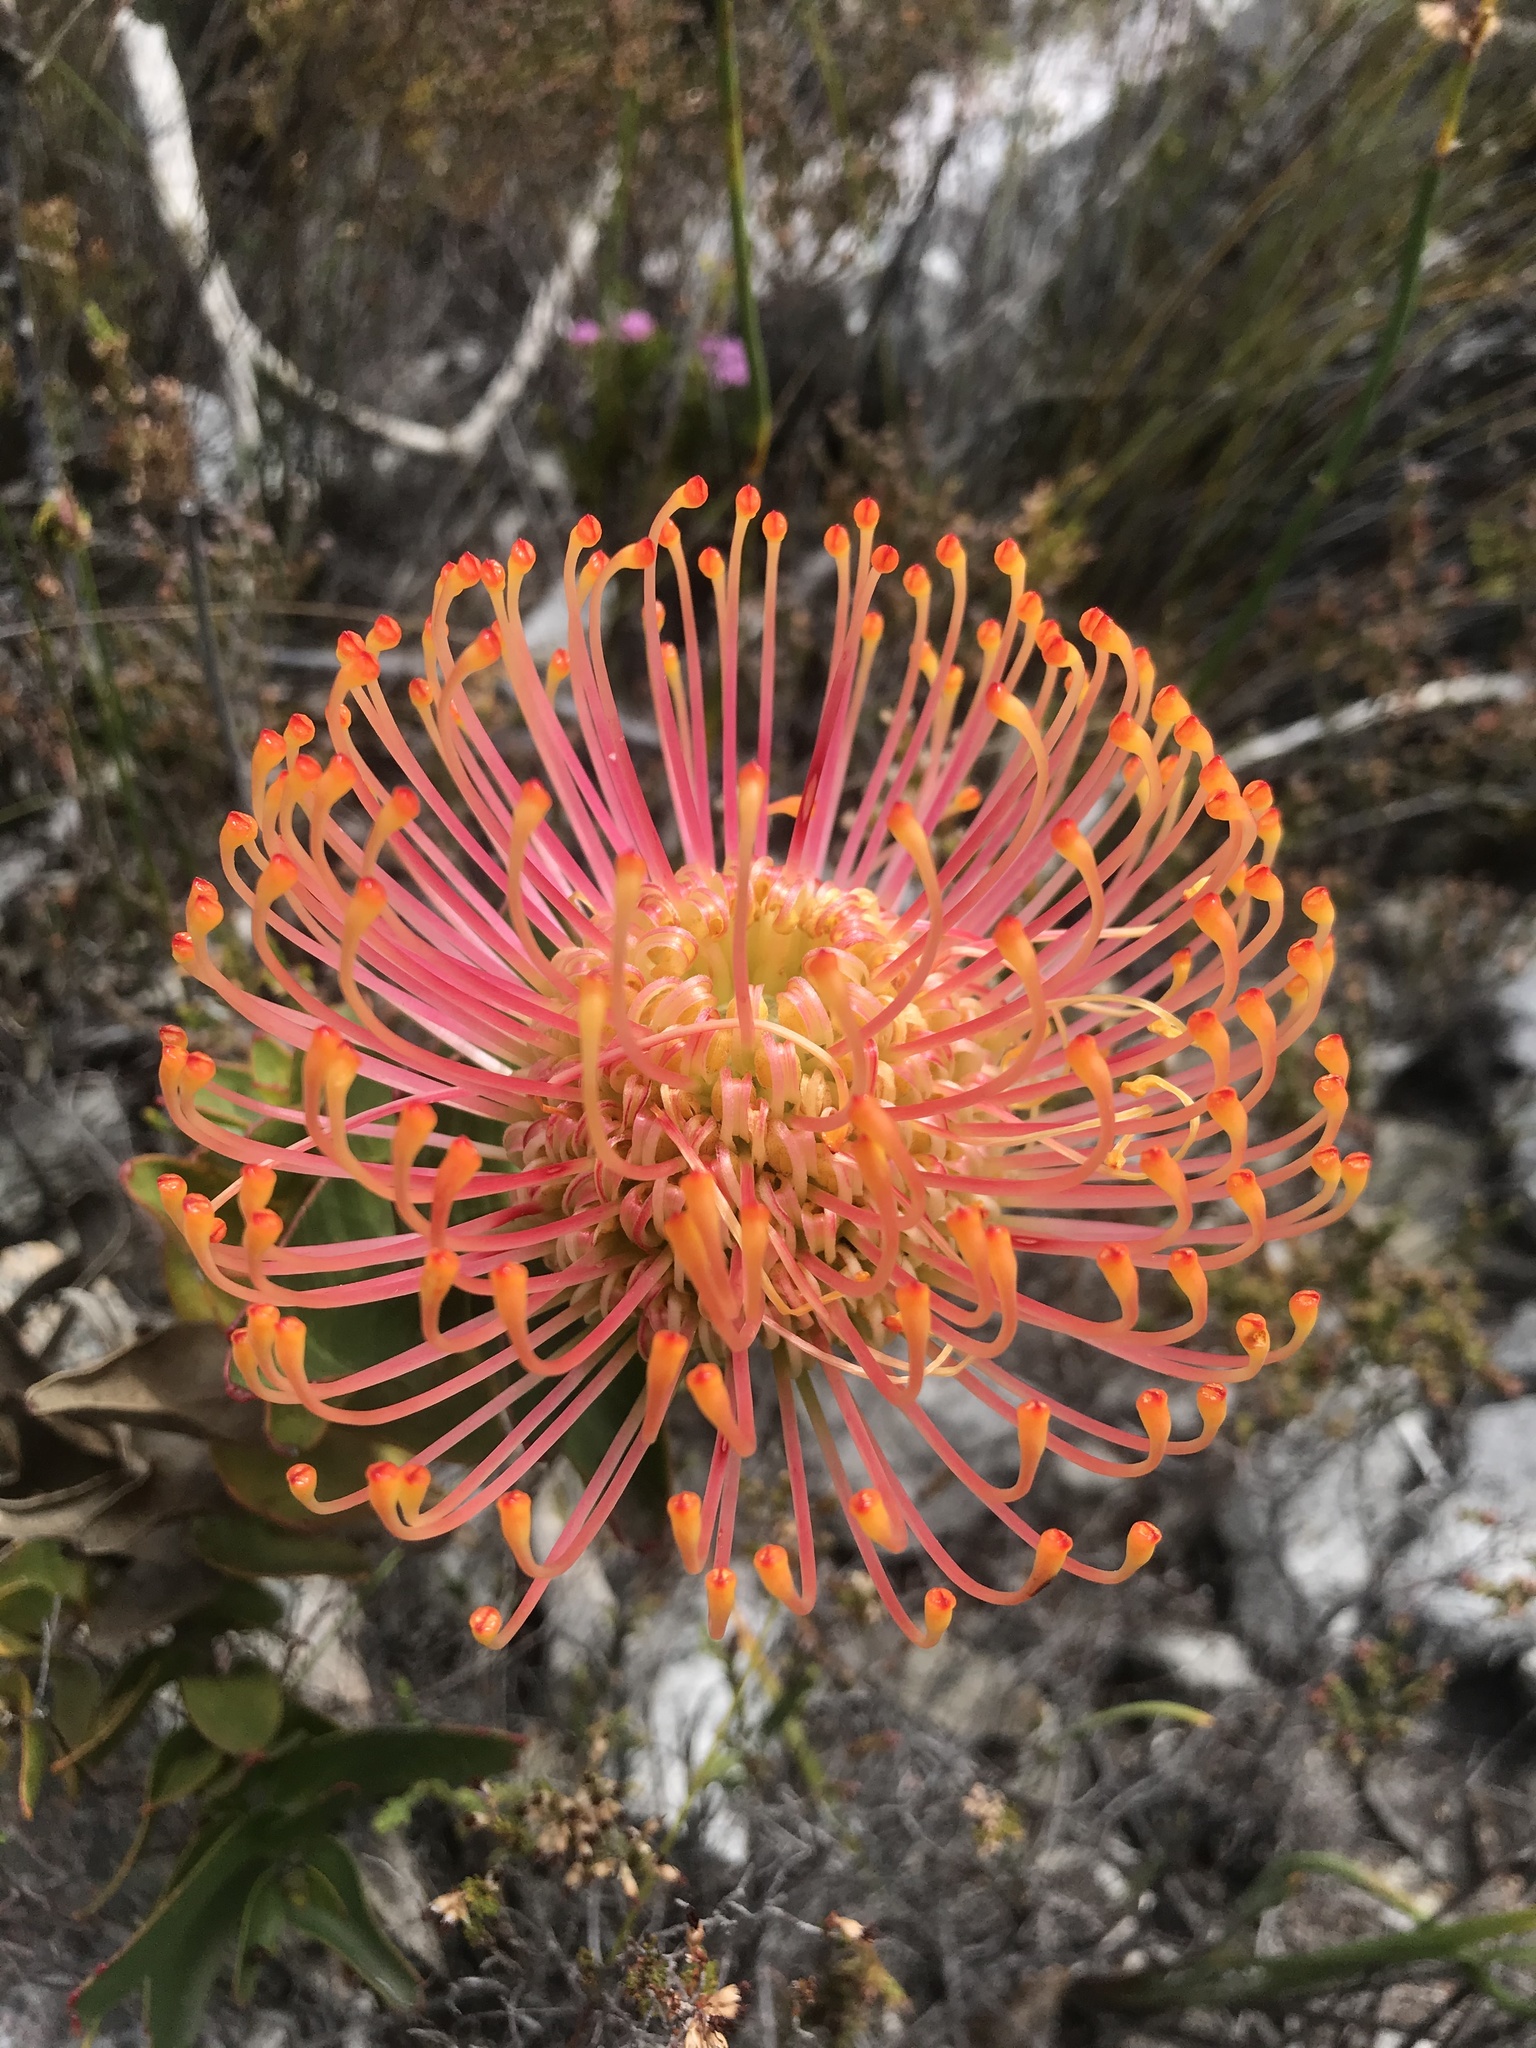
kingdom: Plantae
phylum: Tracheophyta
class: Magnoliopsida
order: Proteales
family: Proteaceae
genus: Leucospermum
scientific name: Leucospermum cordifolium
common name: Red pincushion-protea
